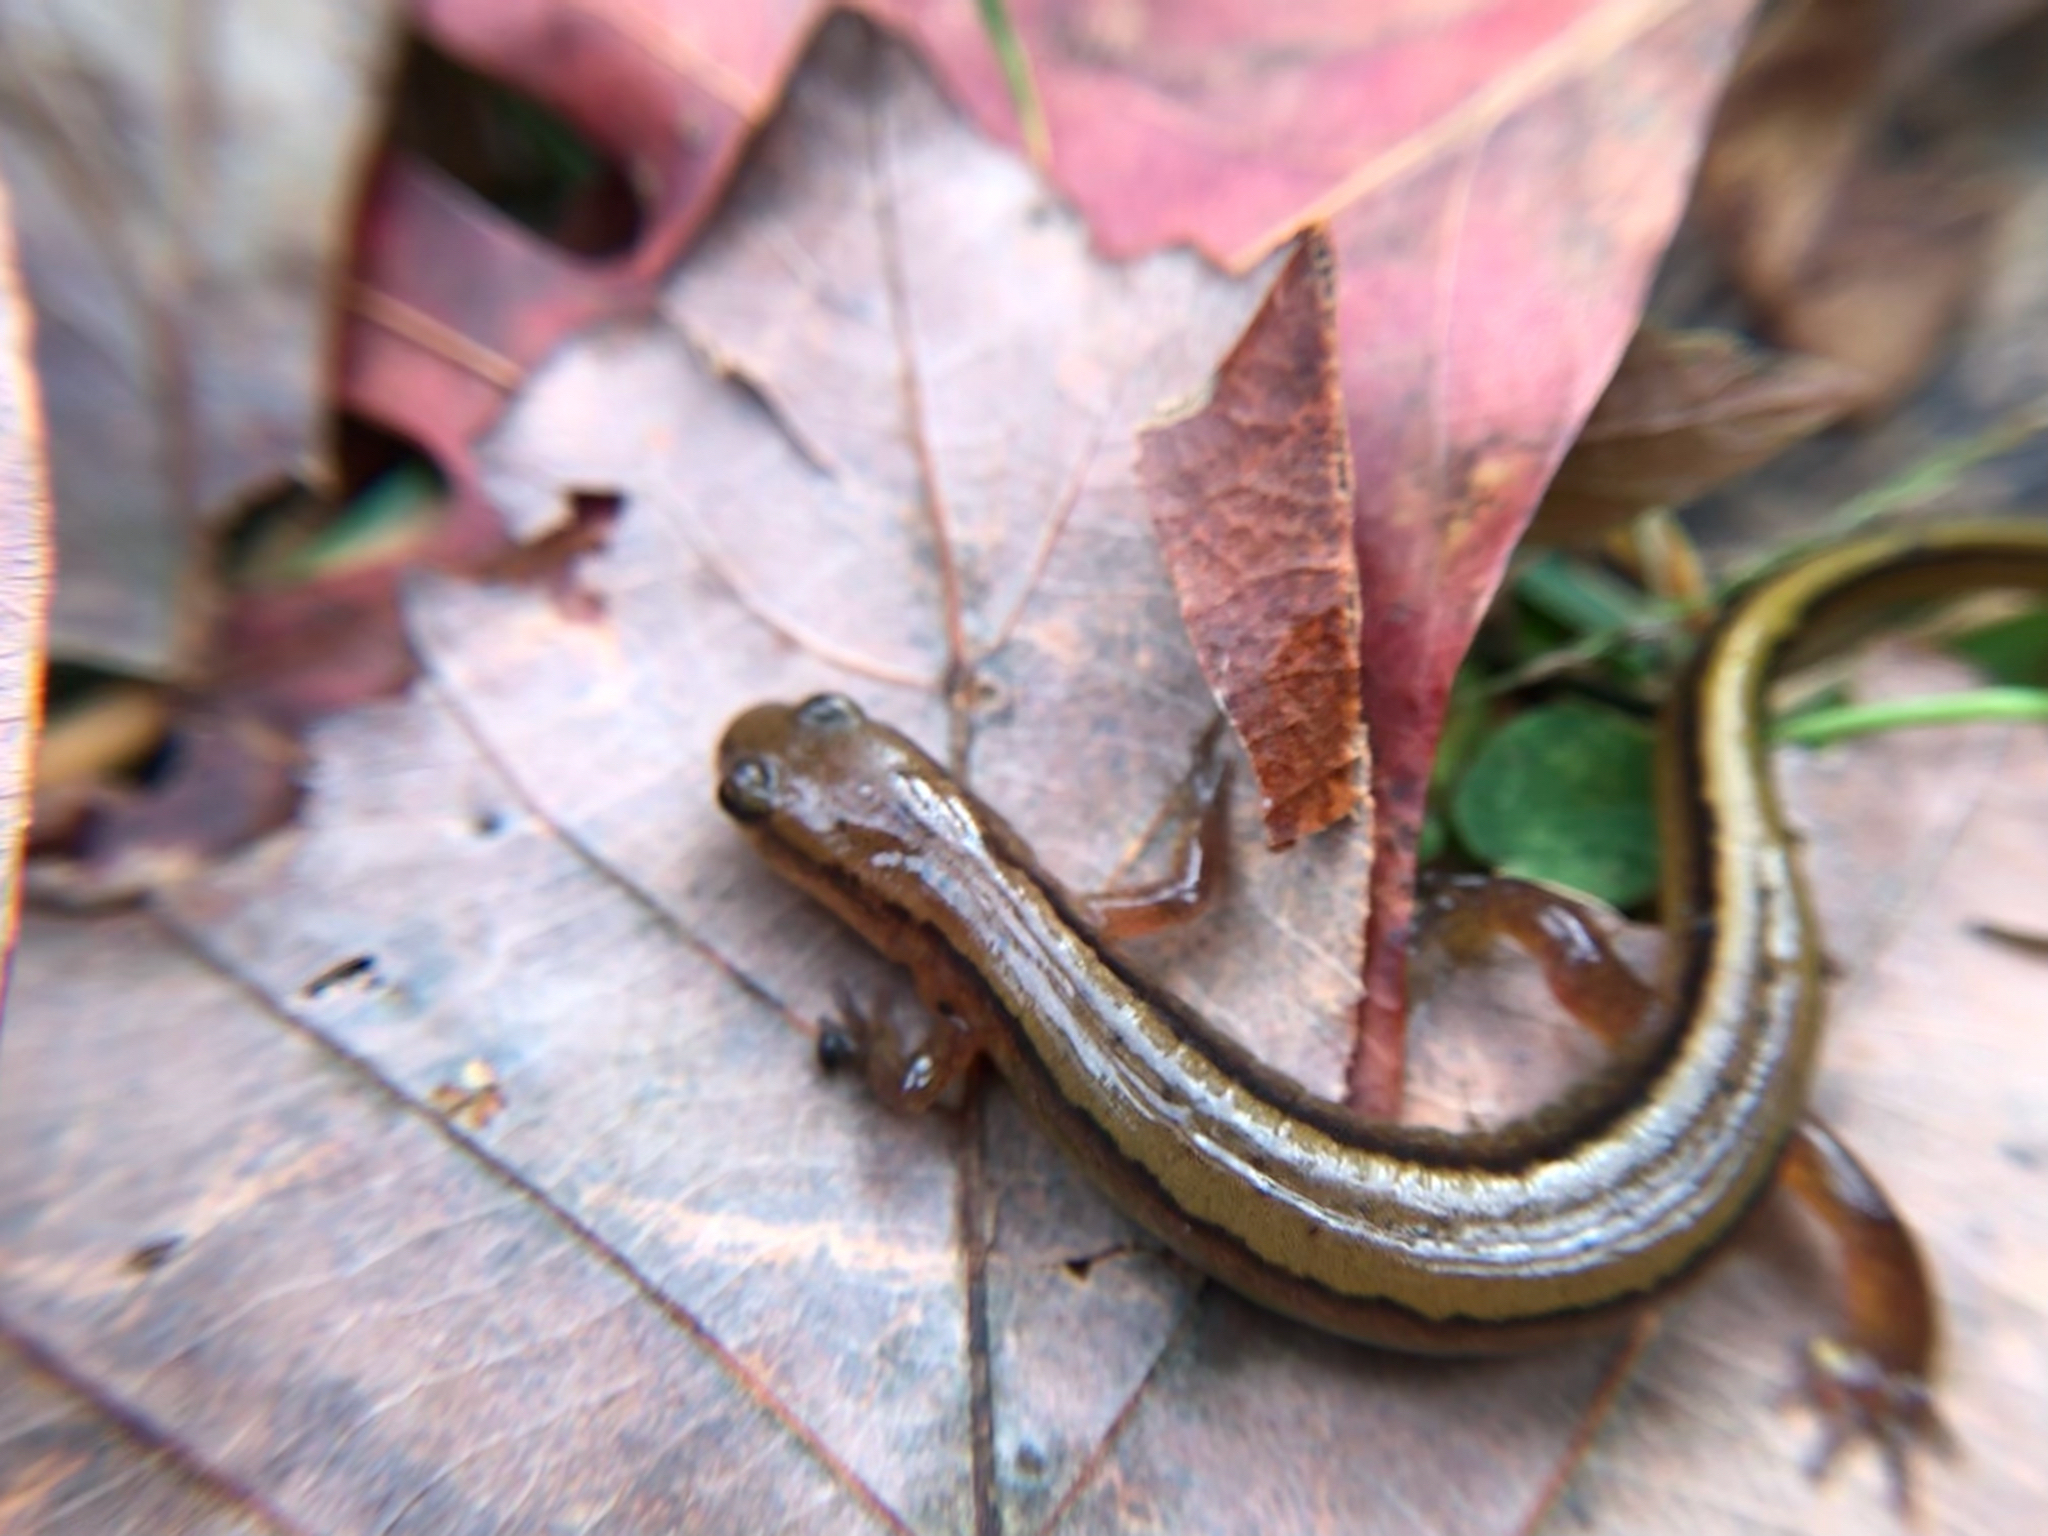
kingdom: Animalia
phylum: Chordata
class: Amphibia
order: Caudata
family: Plethodontidae
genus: Eurycea
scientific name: Eurycea cirrigera
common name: Southern two-lined salamander
